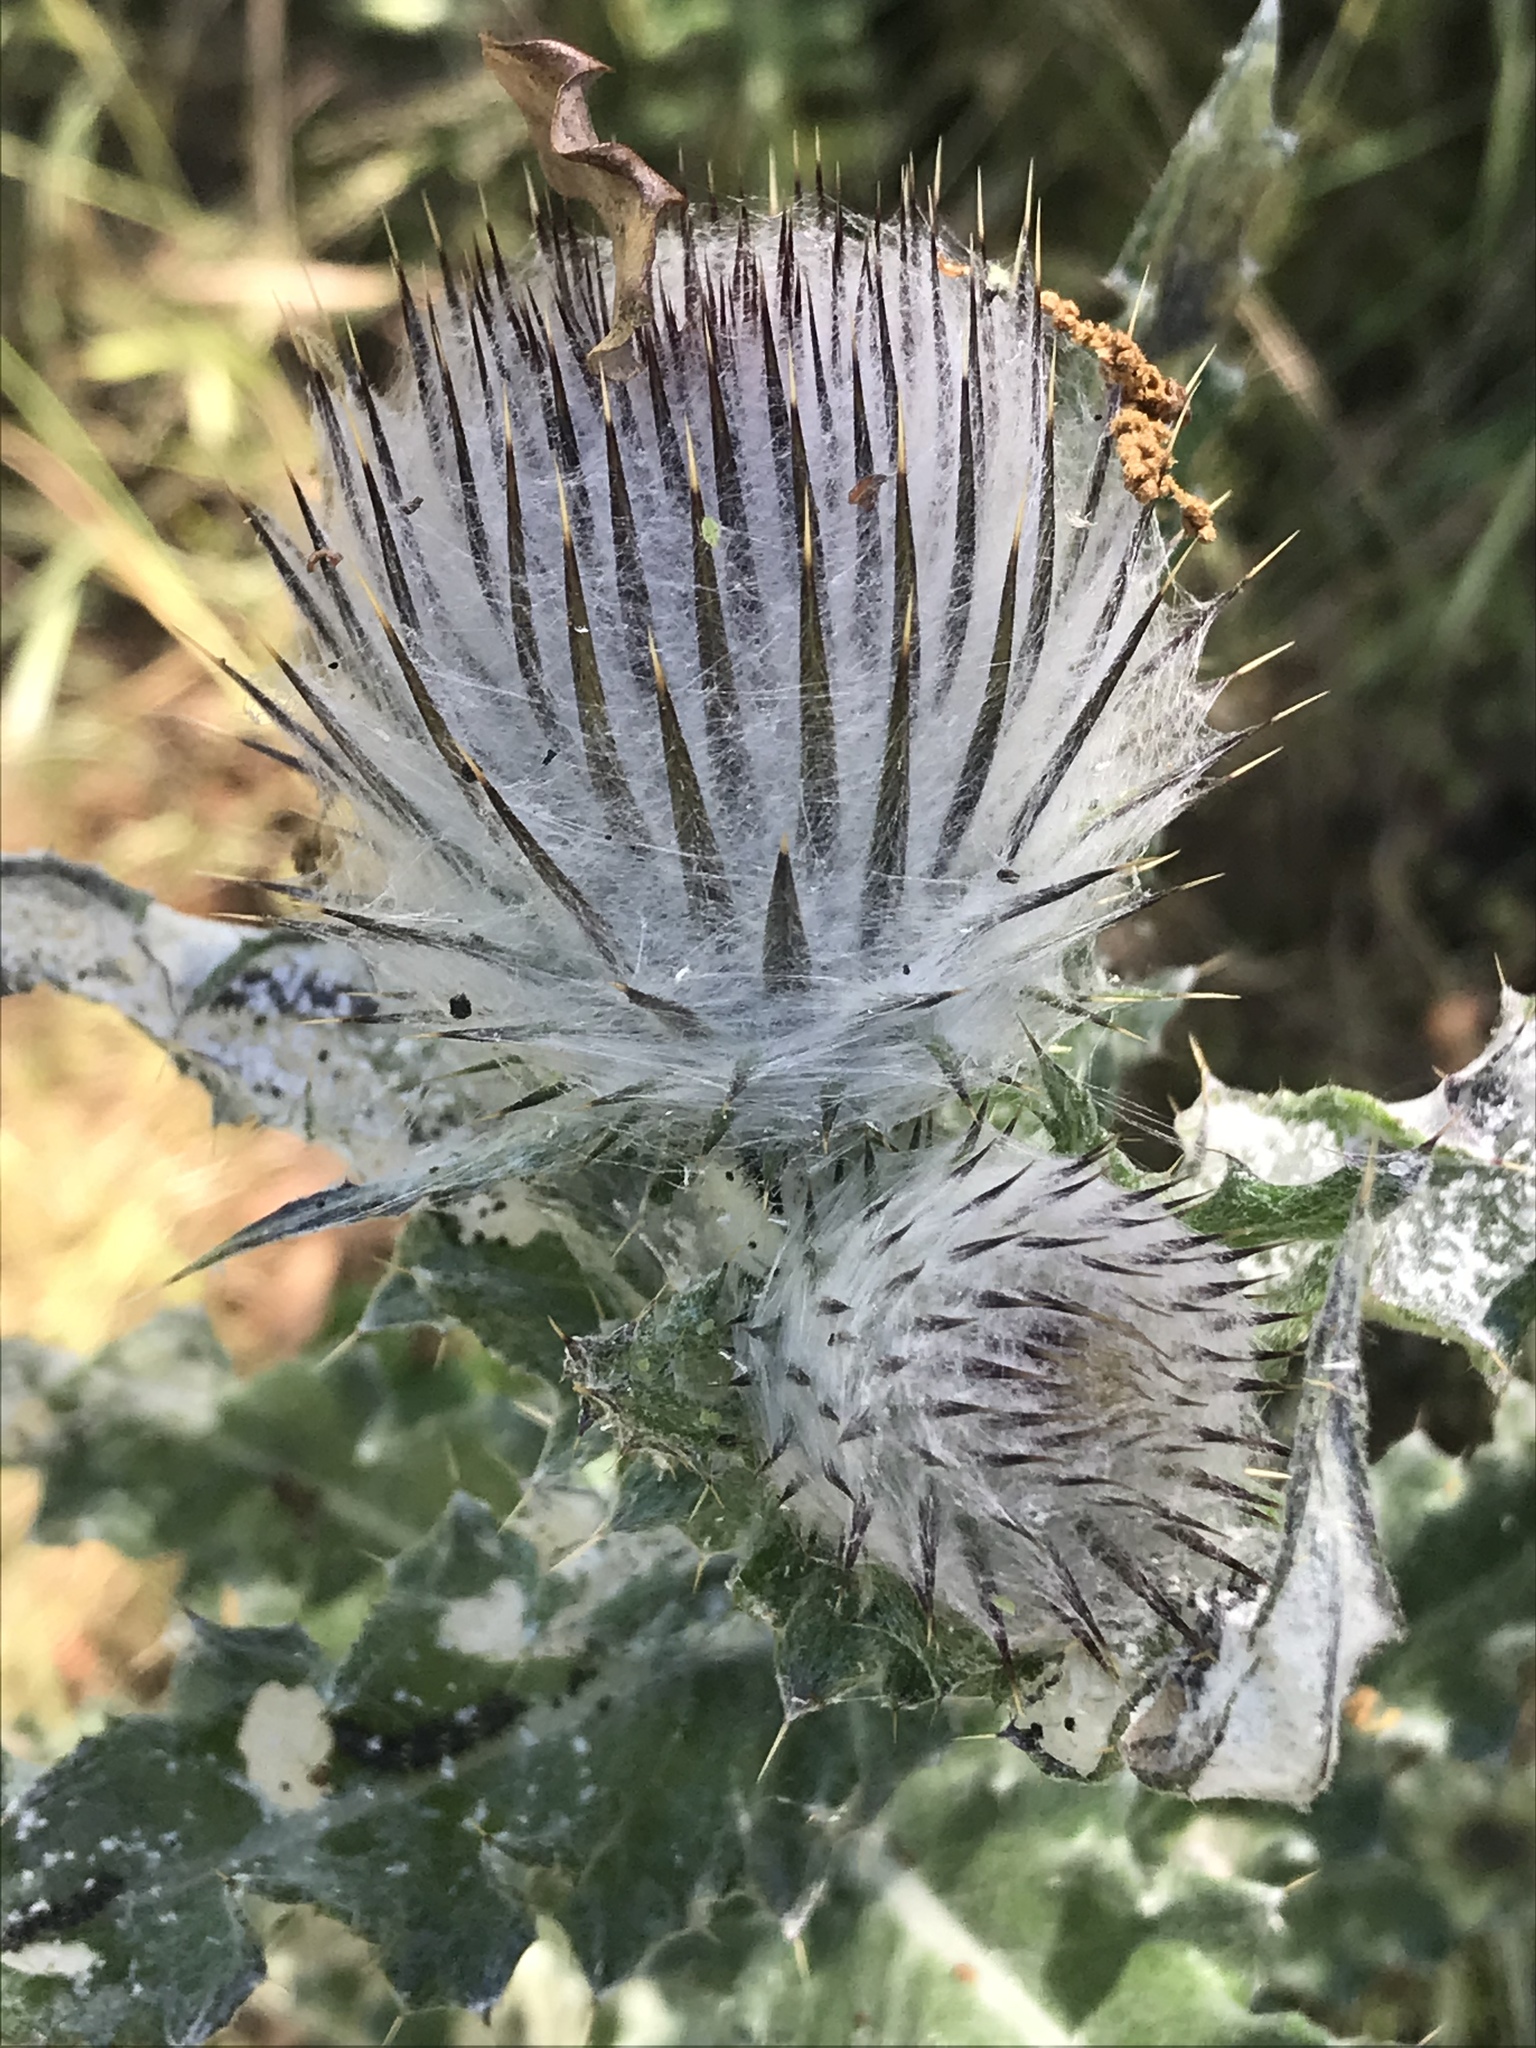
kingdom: Plantae
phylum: Tracheophyta
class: Magnoliopsida
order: Asterales
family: Asteraceae
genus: Cirsium
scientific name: Cirsium occidentale
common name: Western thistle
